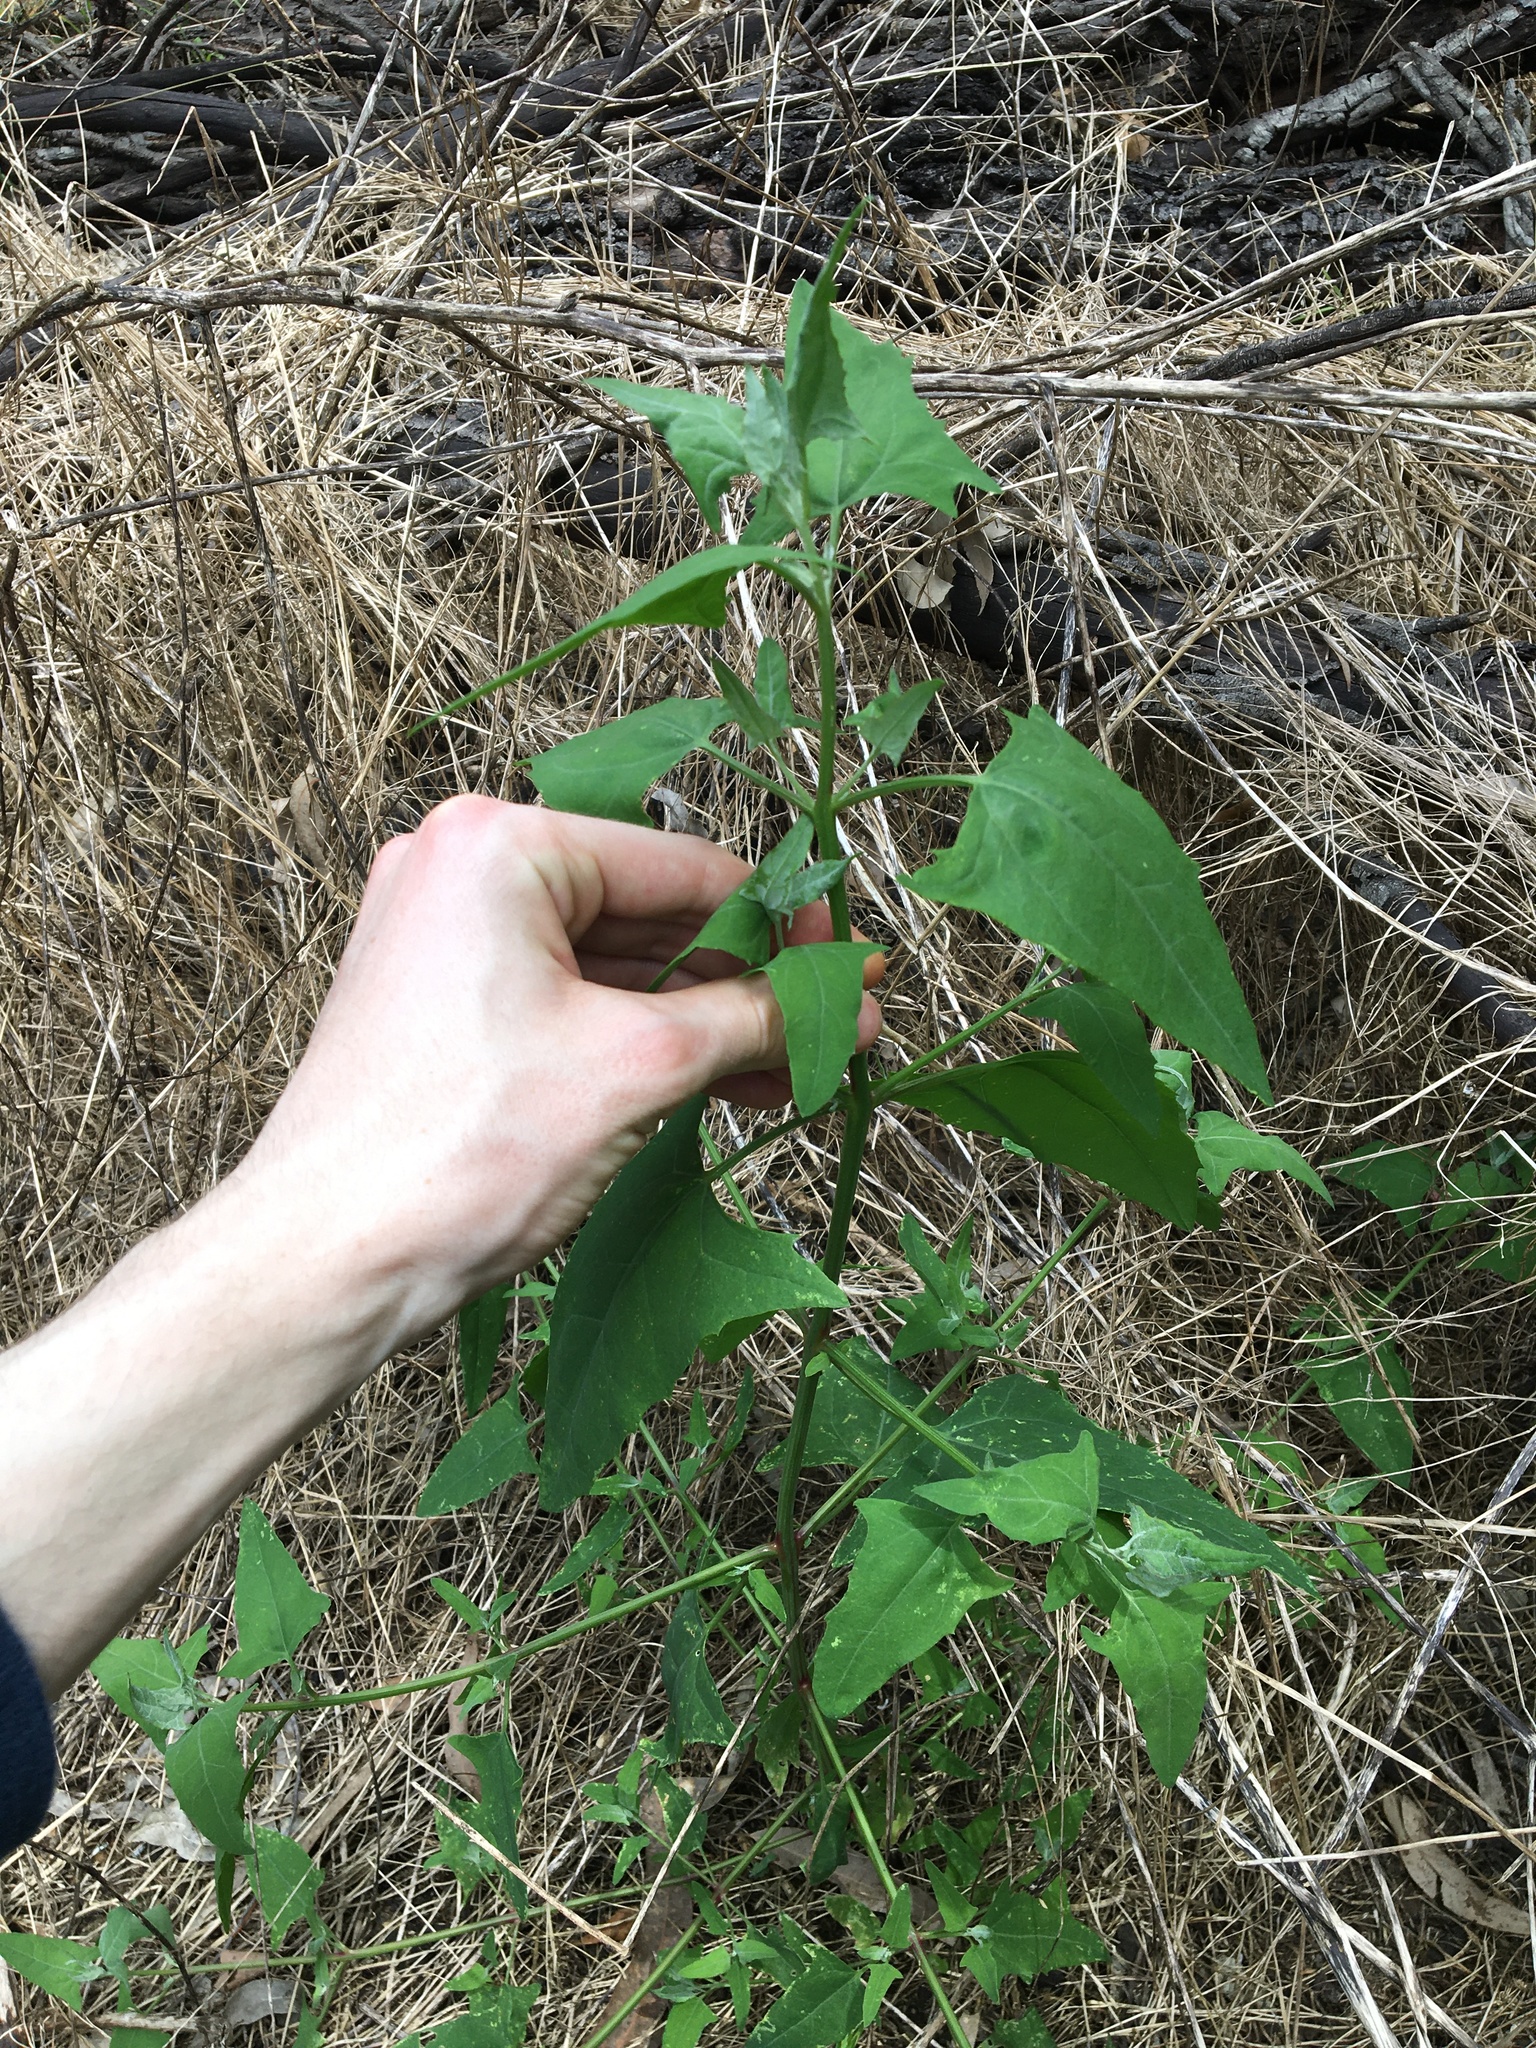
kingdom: Plantae
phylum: Tracheophyta
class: Magnoliopsida
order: Caryophyllales
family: Amaranthaceae
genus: Atriplex
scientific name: Atriplex prostrata
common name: Spear-leaved orache
